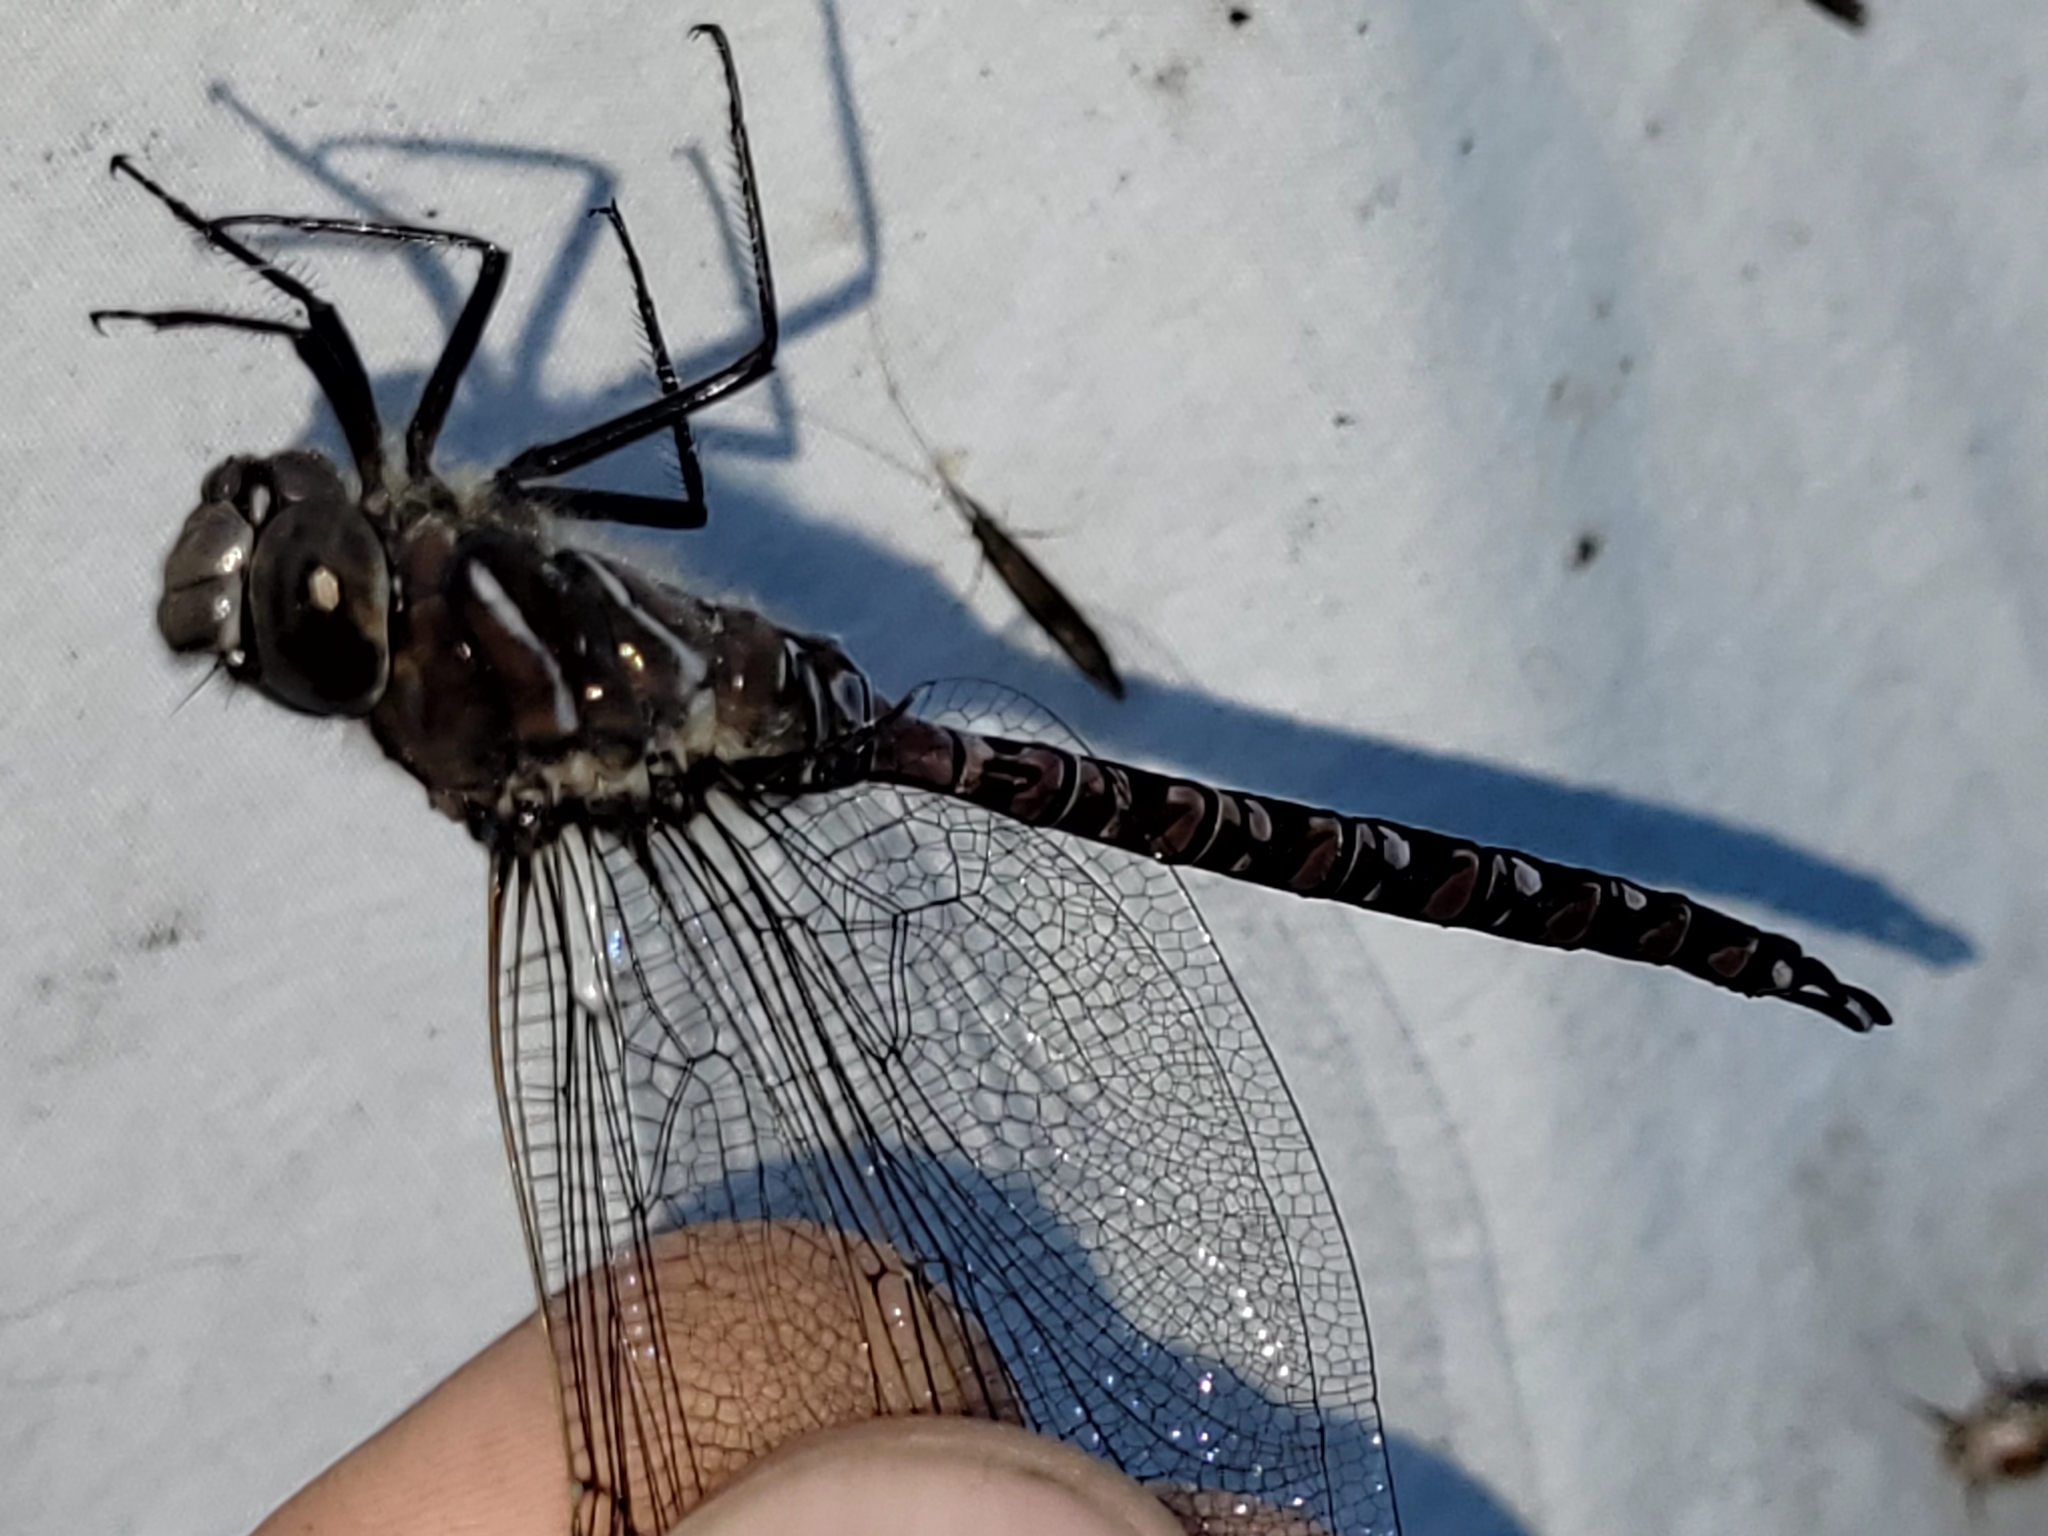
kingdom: Animalia
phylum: Arthropoda
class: Insecta
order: Odonata
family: Aeshnidae
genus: Aeshna
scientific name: Aeshna interrupta
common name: Variable darner
